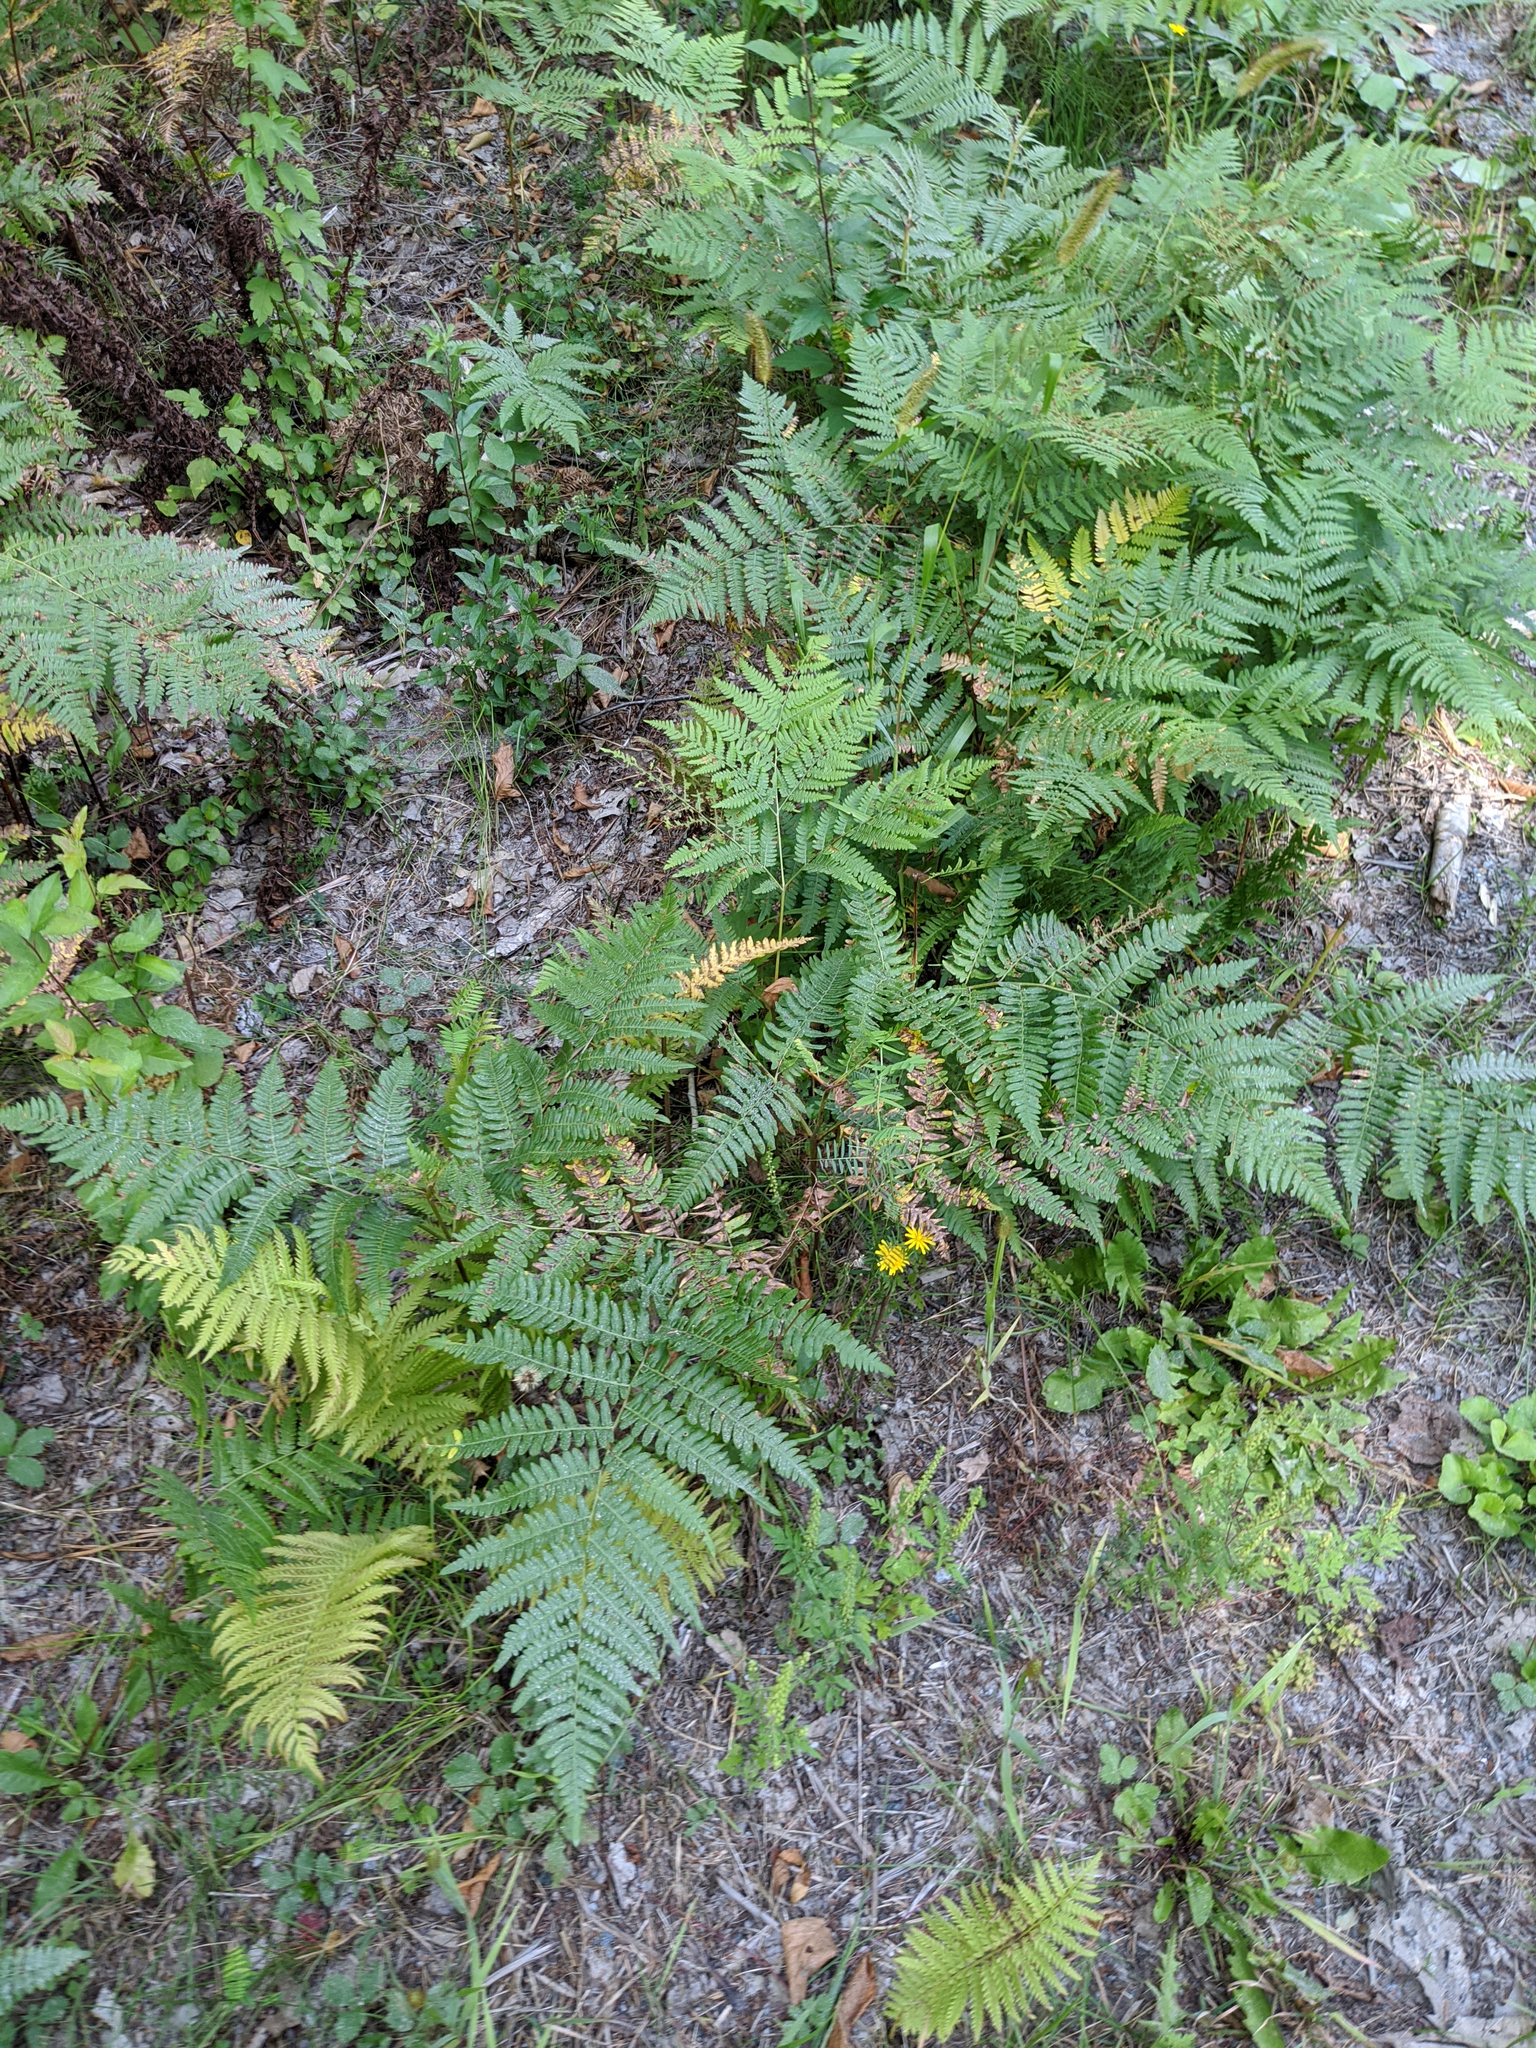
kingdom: Plantae
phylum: Tracheophyta
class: Polypodiopsida
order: Polypodiales
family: Dennstaedtiaceae
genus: Pteridium
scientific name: Pteridium aquilinum
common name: Bracken
